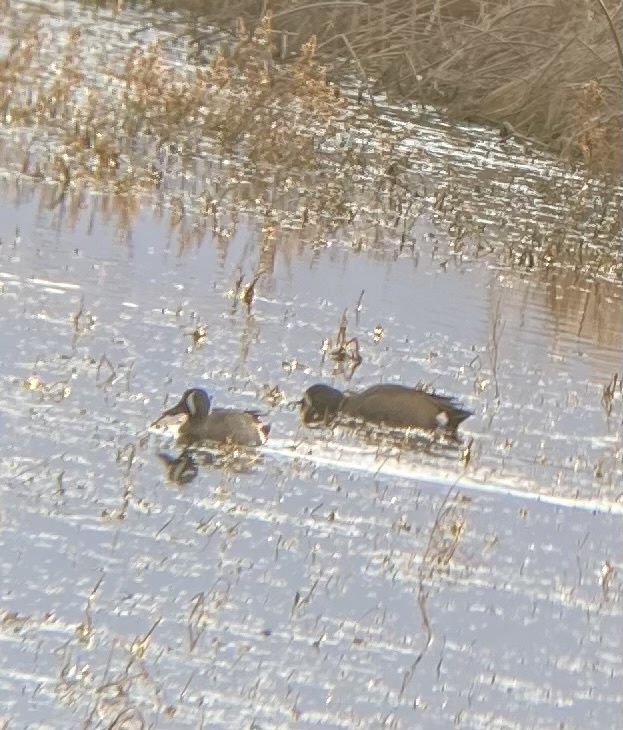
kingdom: Animalia
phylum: Chordata
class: Aves
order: Anseriformes
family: Anatidae
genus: Spatula
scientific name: Spatula discors
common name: Blue-winged teal
